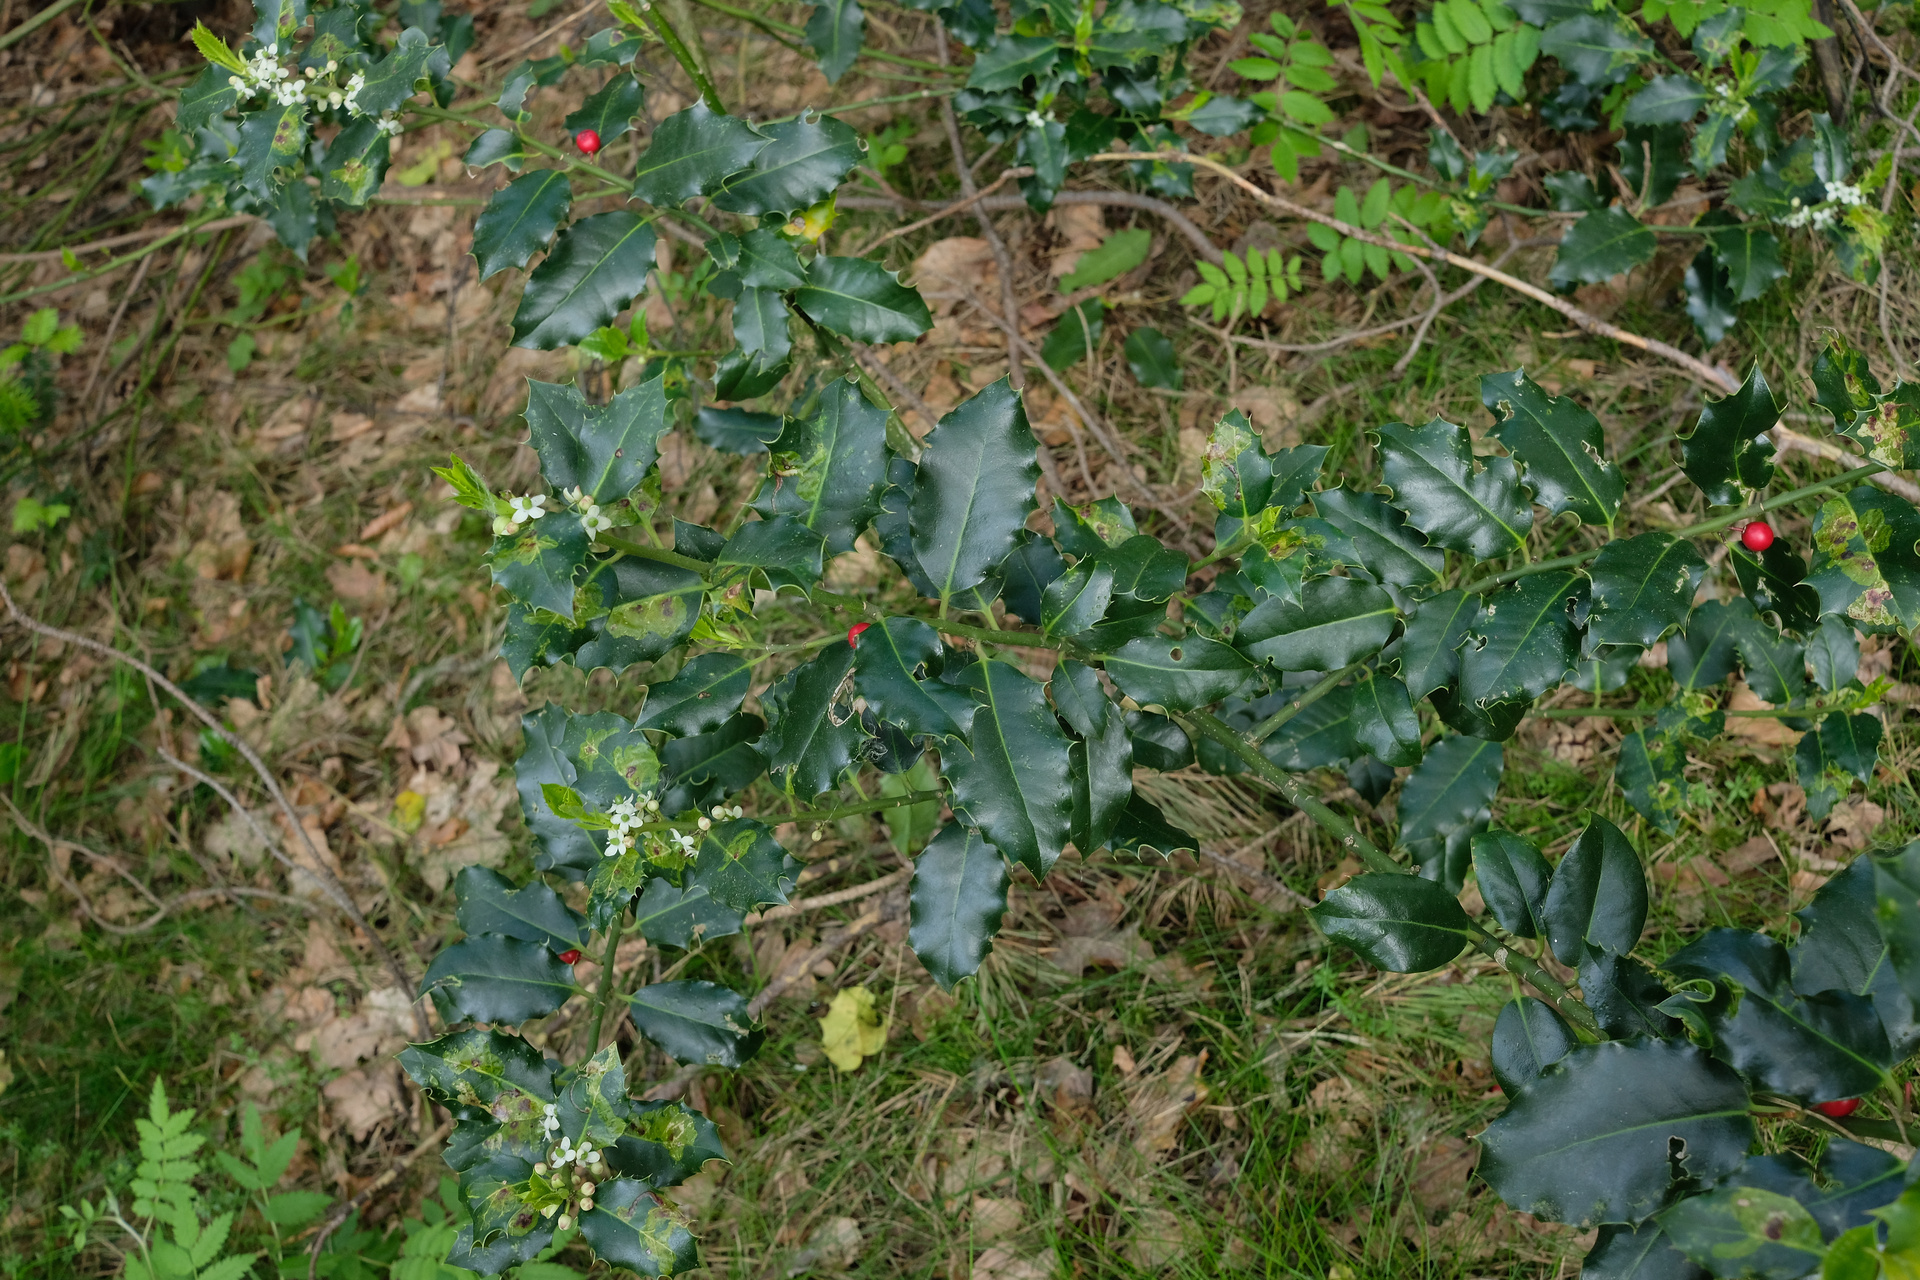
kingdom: Plantae
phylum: Tracheophyta
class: Magnoliopsida
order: Aquifoliales
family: Aquifoliaceae
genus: Ilex
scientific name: Ilex aquifolium
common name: English holly
